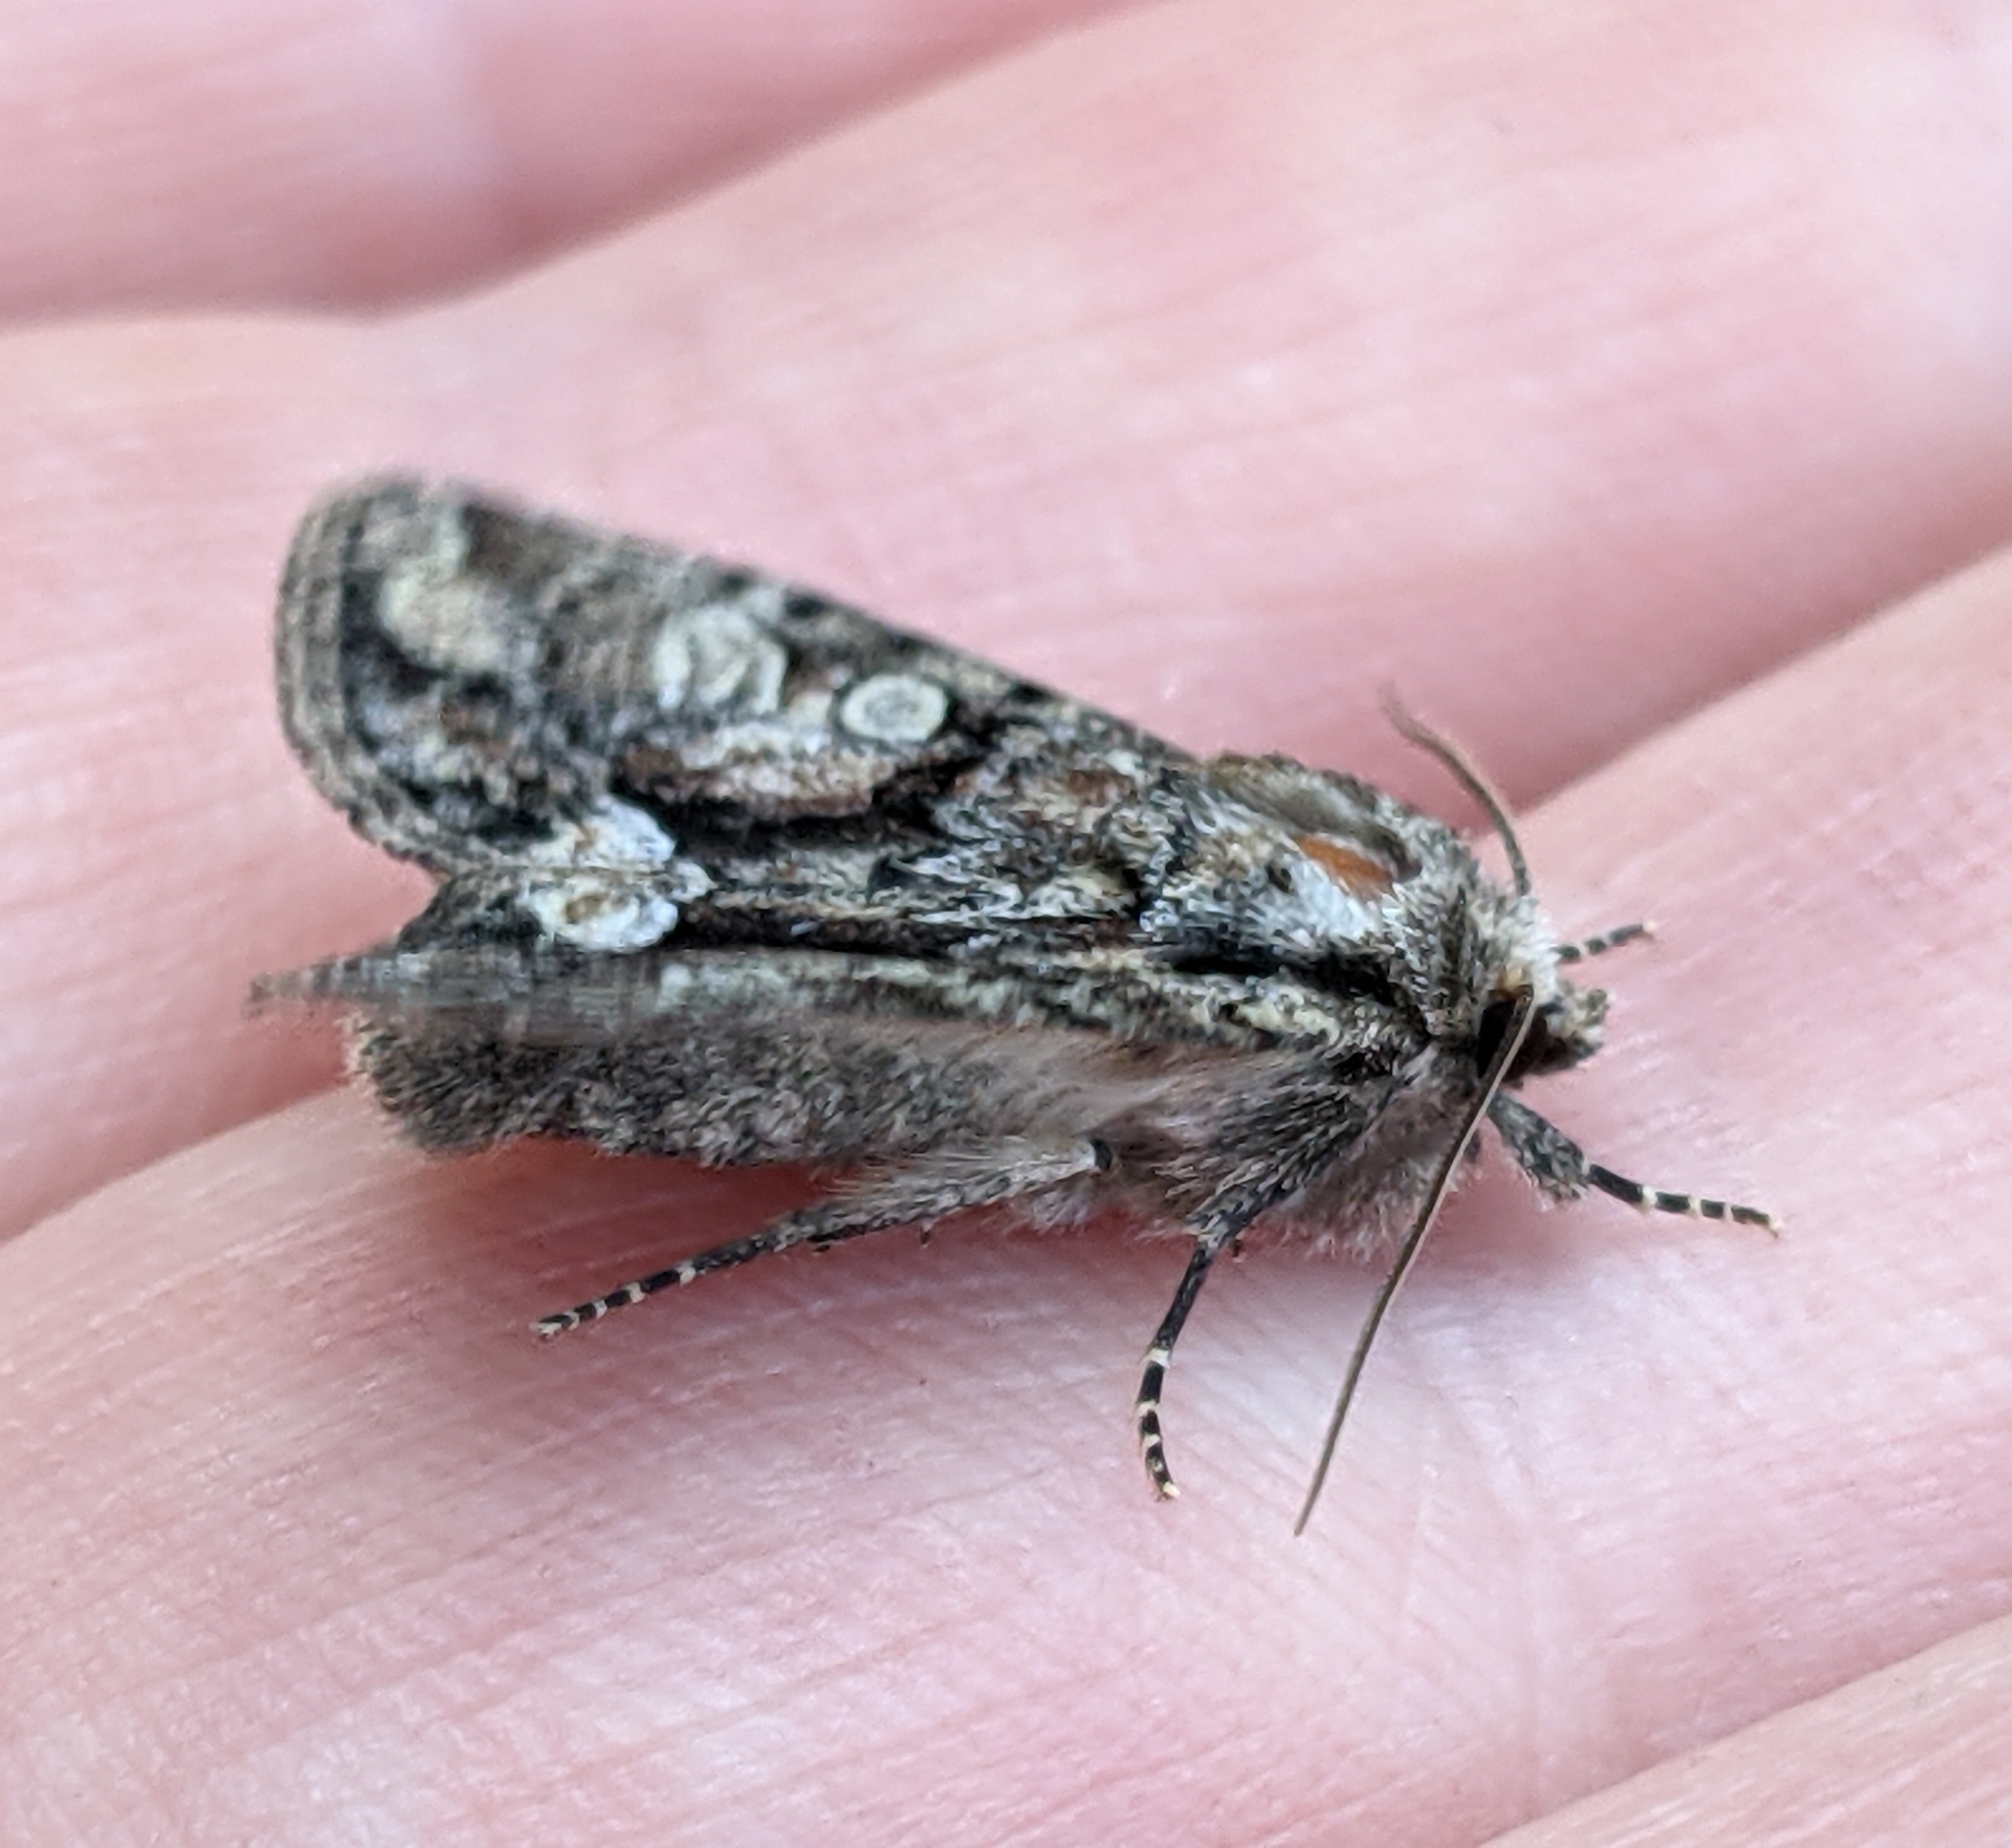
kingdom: Animalia
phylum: Arthropoda
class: Insecta
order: Lepidoptera
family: Noctuidae
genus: Oligia
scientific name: Oligia divesta
